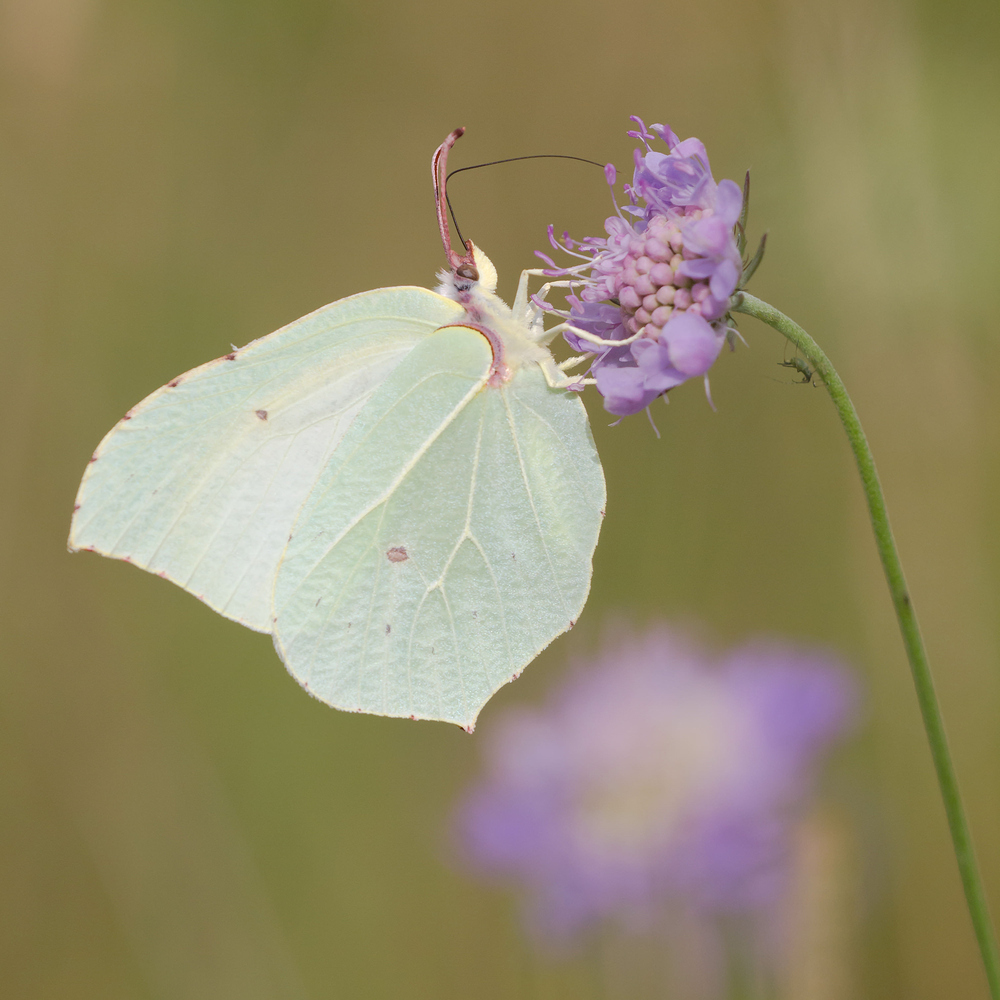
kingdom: Animalia
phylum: Arthropoda
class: Insecta
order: Lepidoptera
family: Pieridae
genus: Gonepteryx
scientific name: Gonepteryx rhamni
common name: Brimstone
